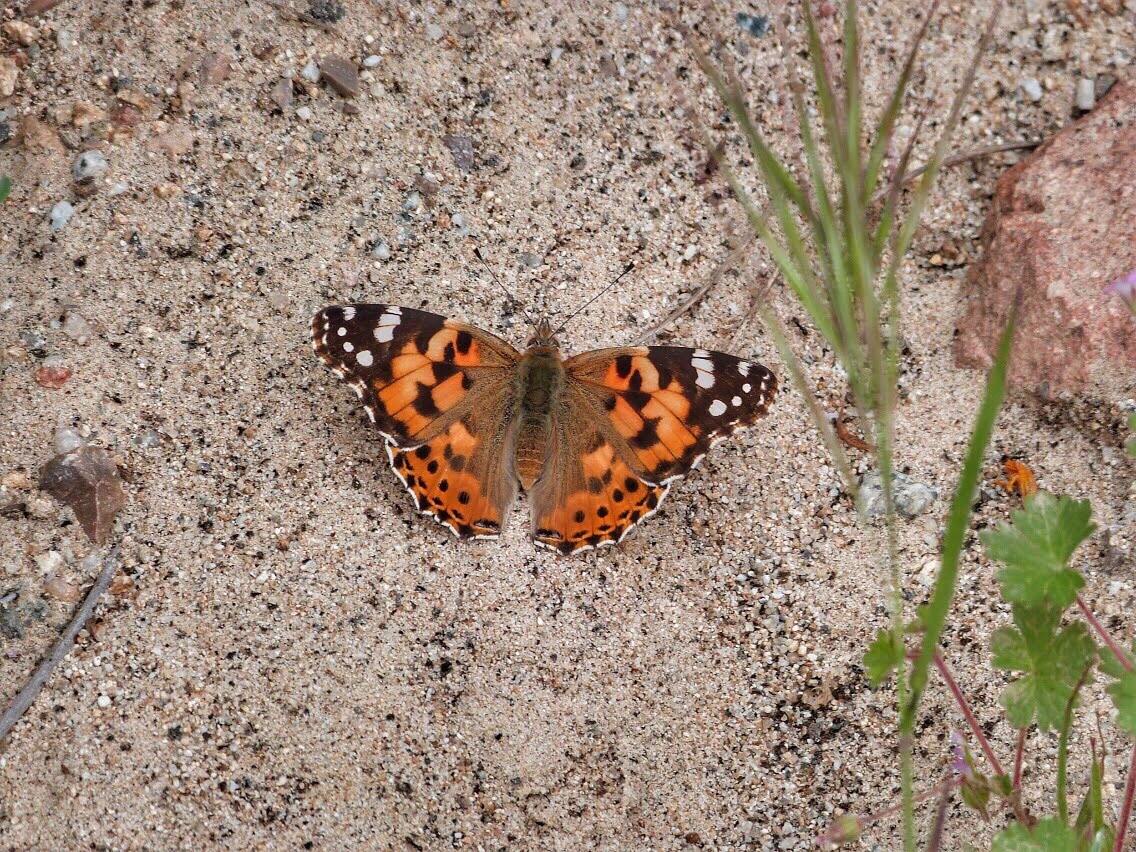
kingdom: Animalia
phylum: Arthropoda
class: Insecta
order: Lepidoptera
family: Nymphalidae
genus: Vanessa
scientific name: Vanessa cardui
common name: Painted lady
